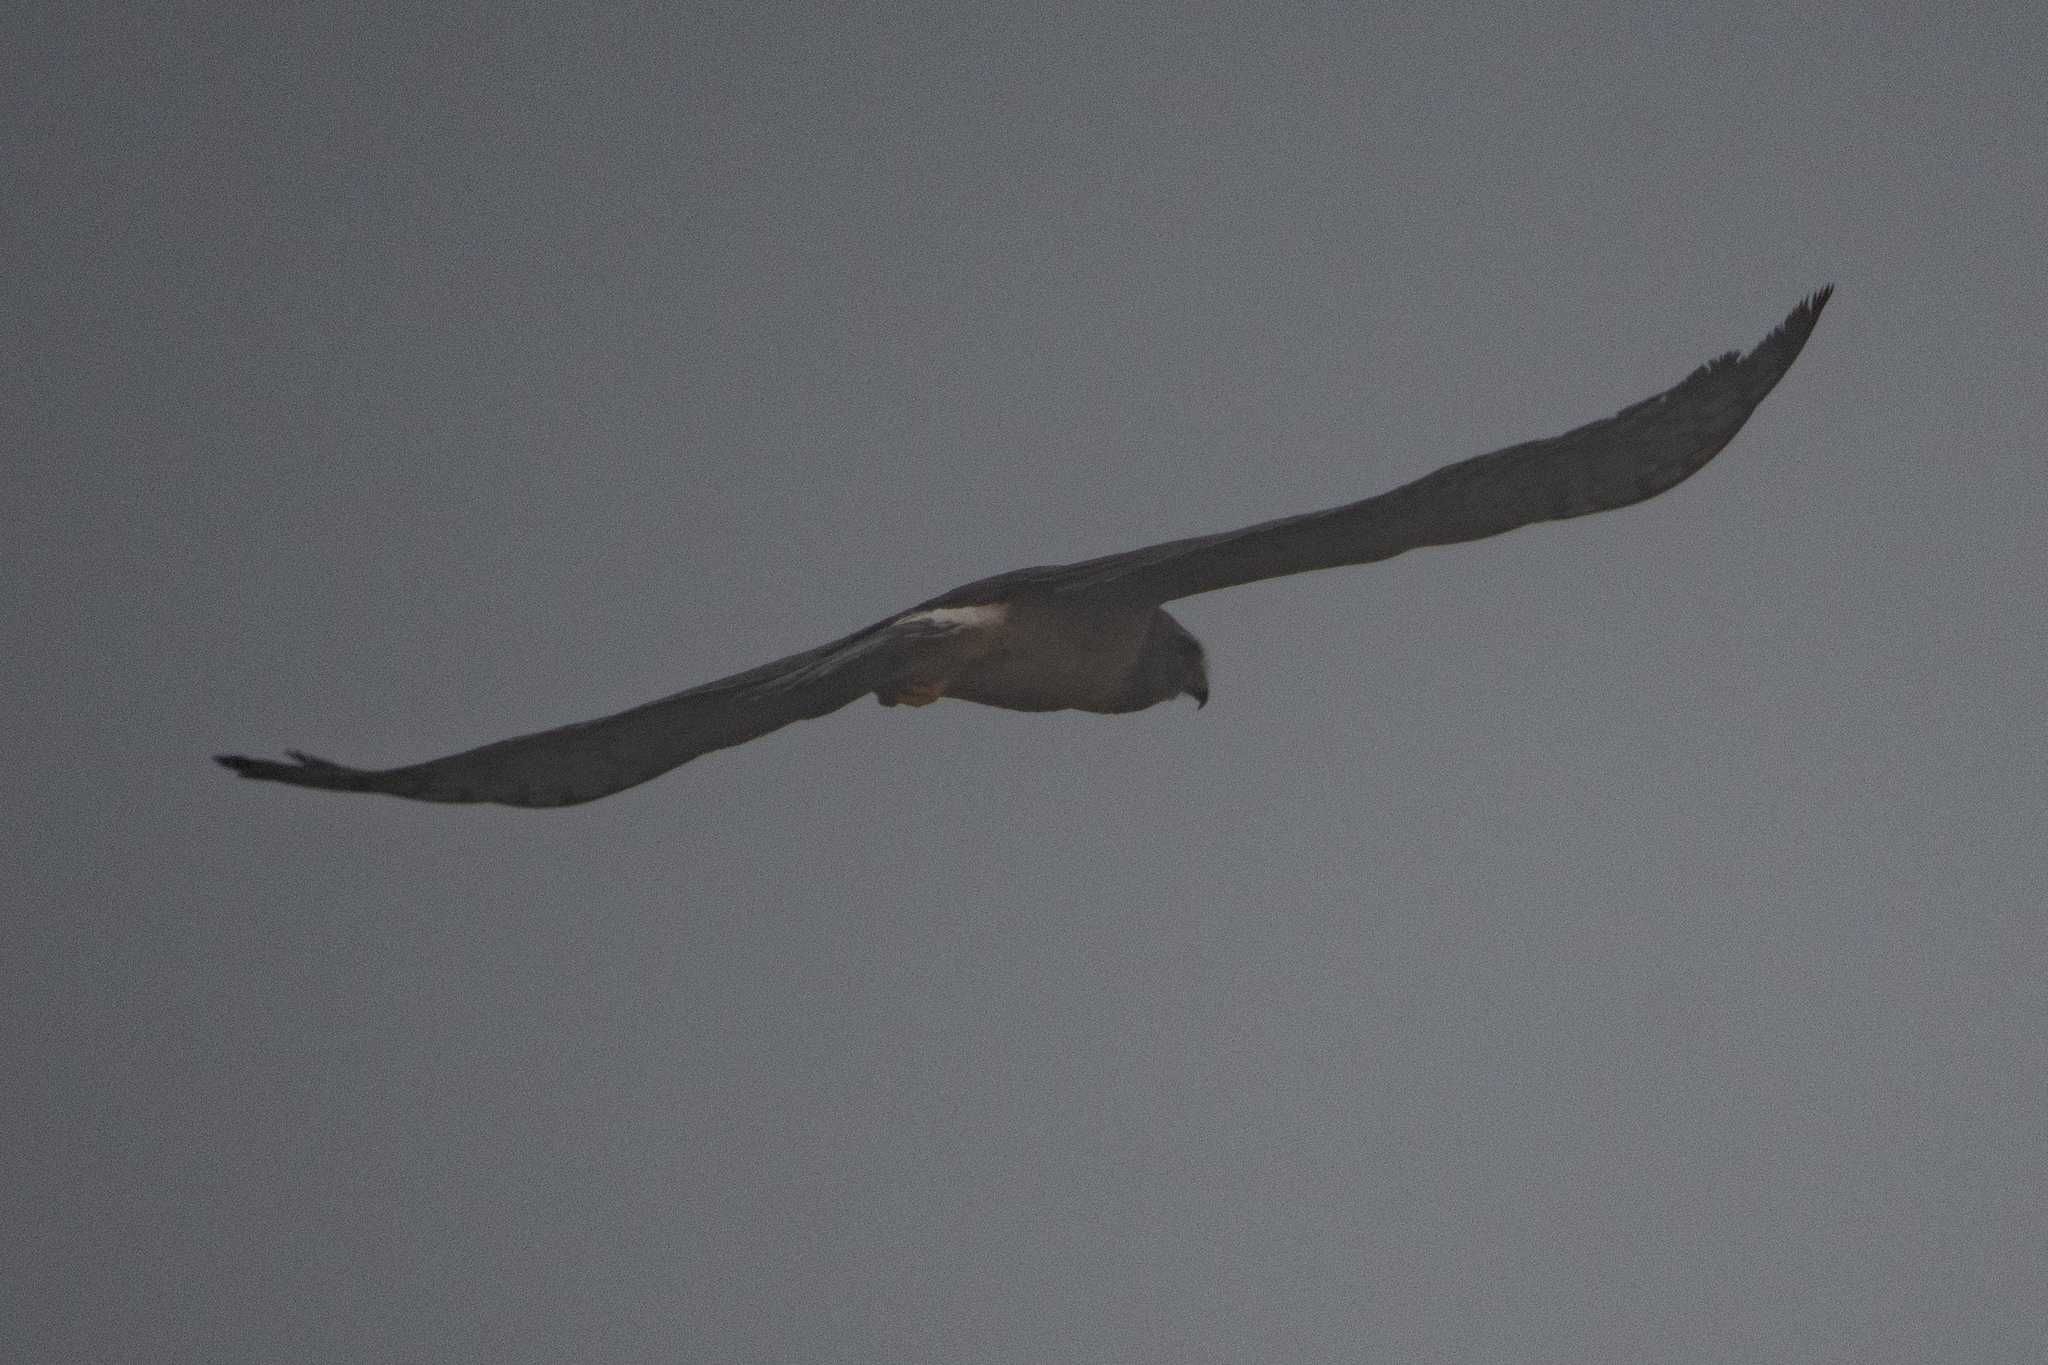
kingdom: Animalia
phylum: Chordata
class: Aves
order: Accipitriformes
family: Accipitridae
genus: Circus
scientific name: Circus cyaneus
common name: Hen harrier
